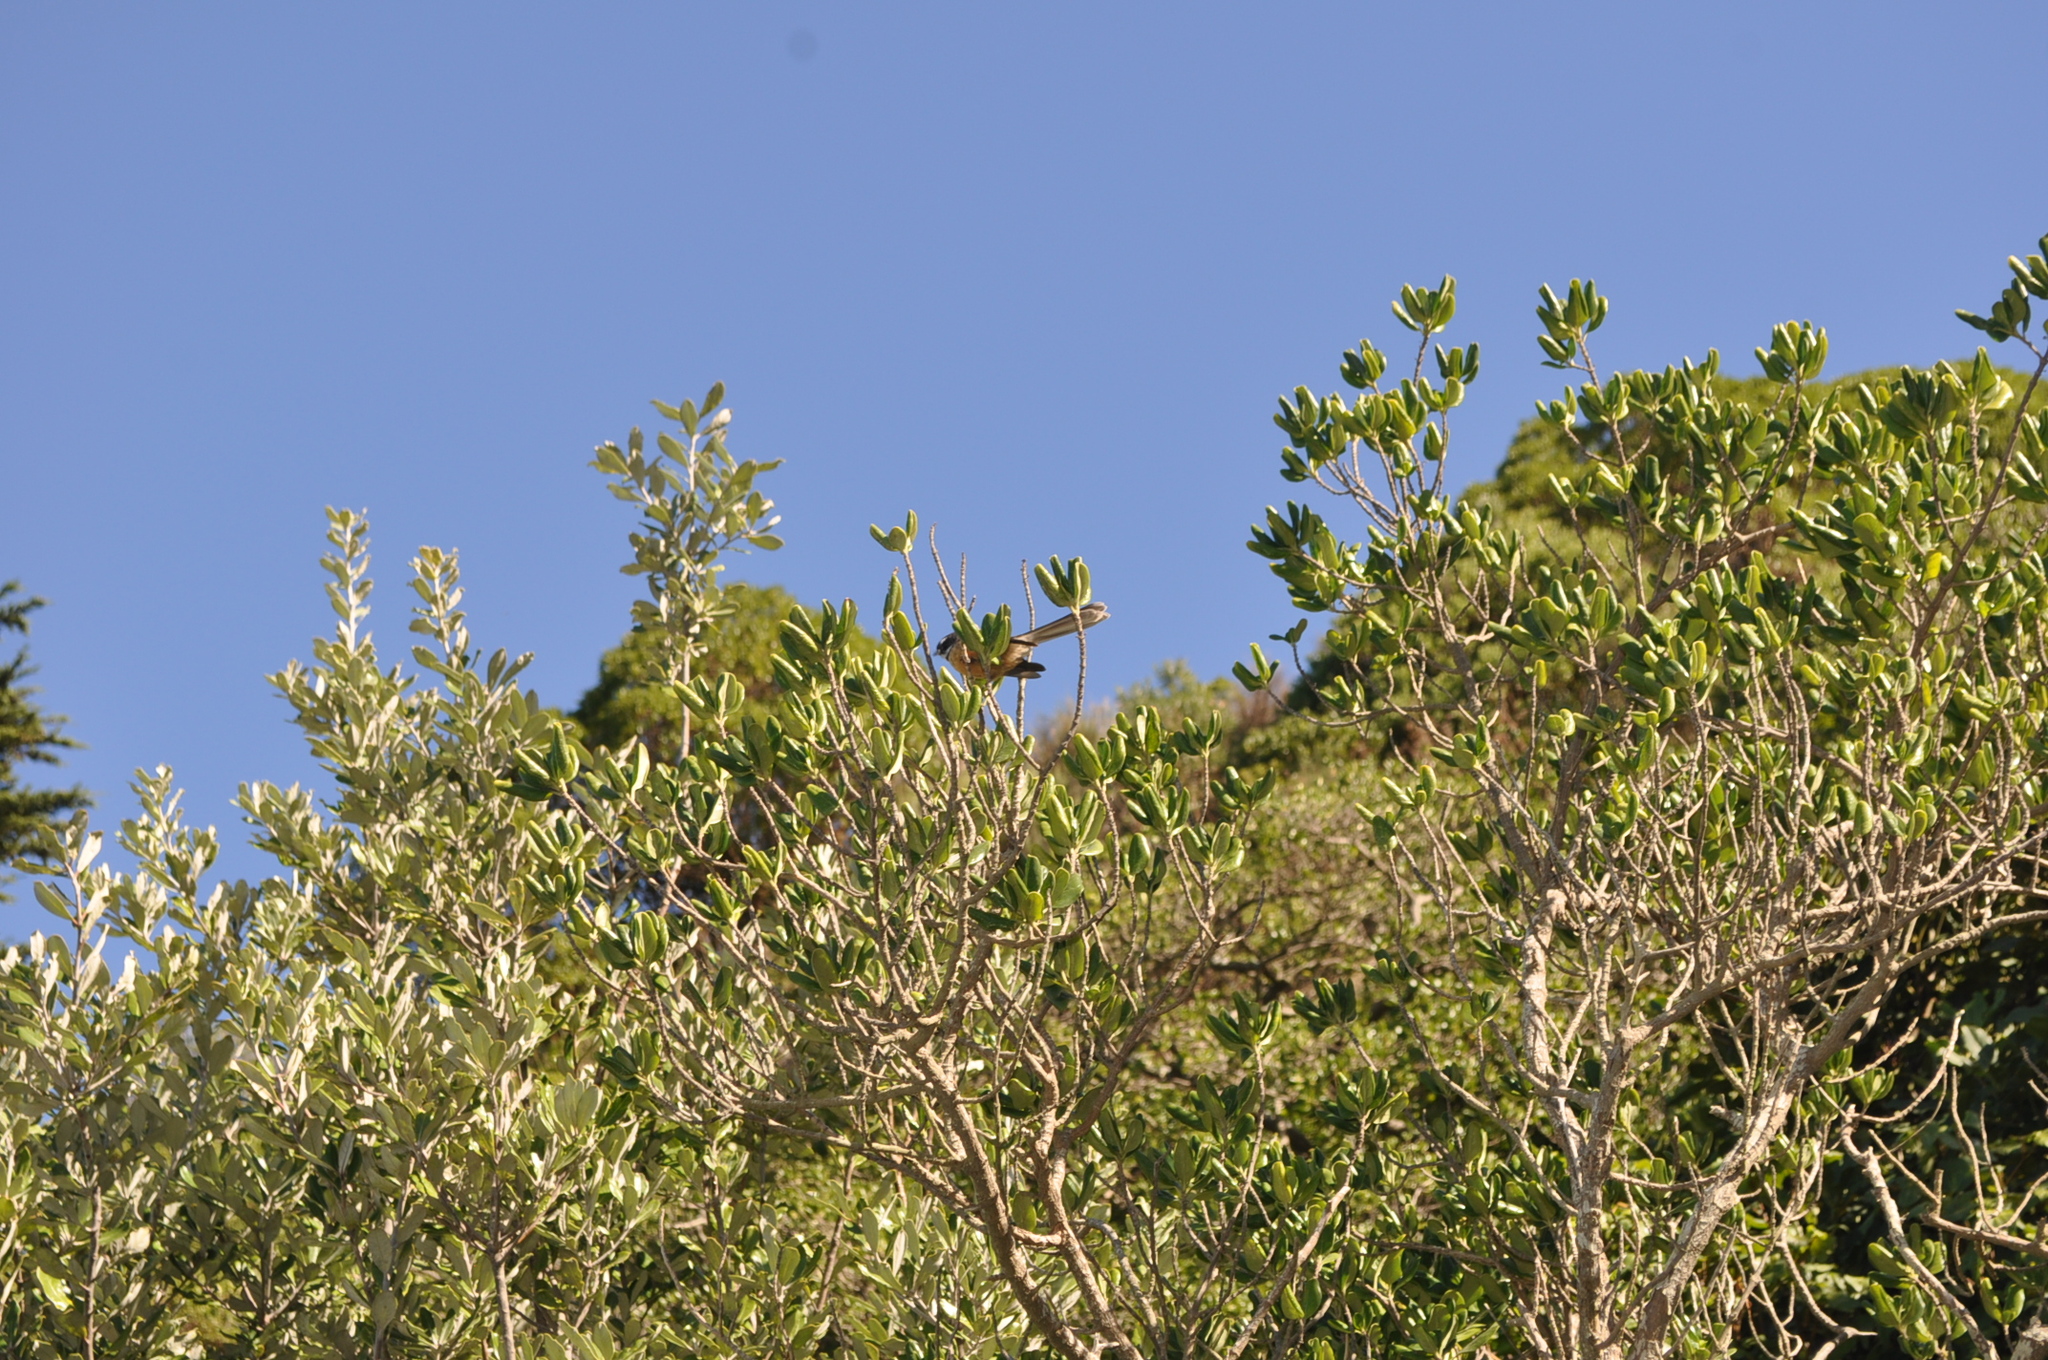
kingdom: Animalia
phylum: Chordata
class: Aves
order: Passeriformes
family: Rhipiduridae
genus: Rhipidura
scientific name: Rhipidura fuliginosa
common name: New zealand fantail
